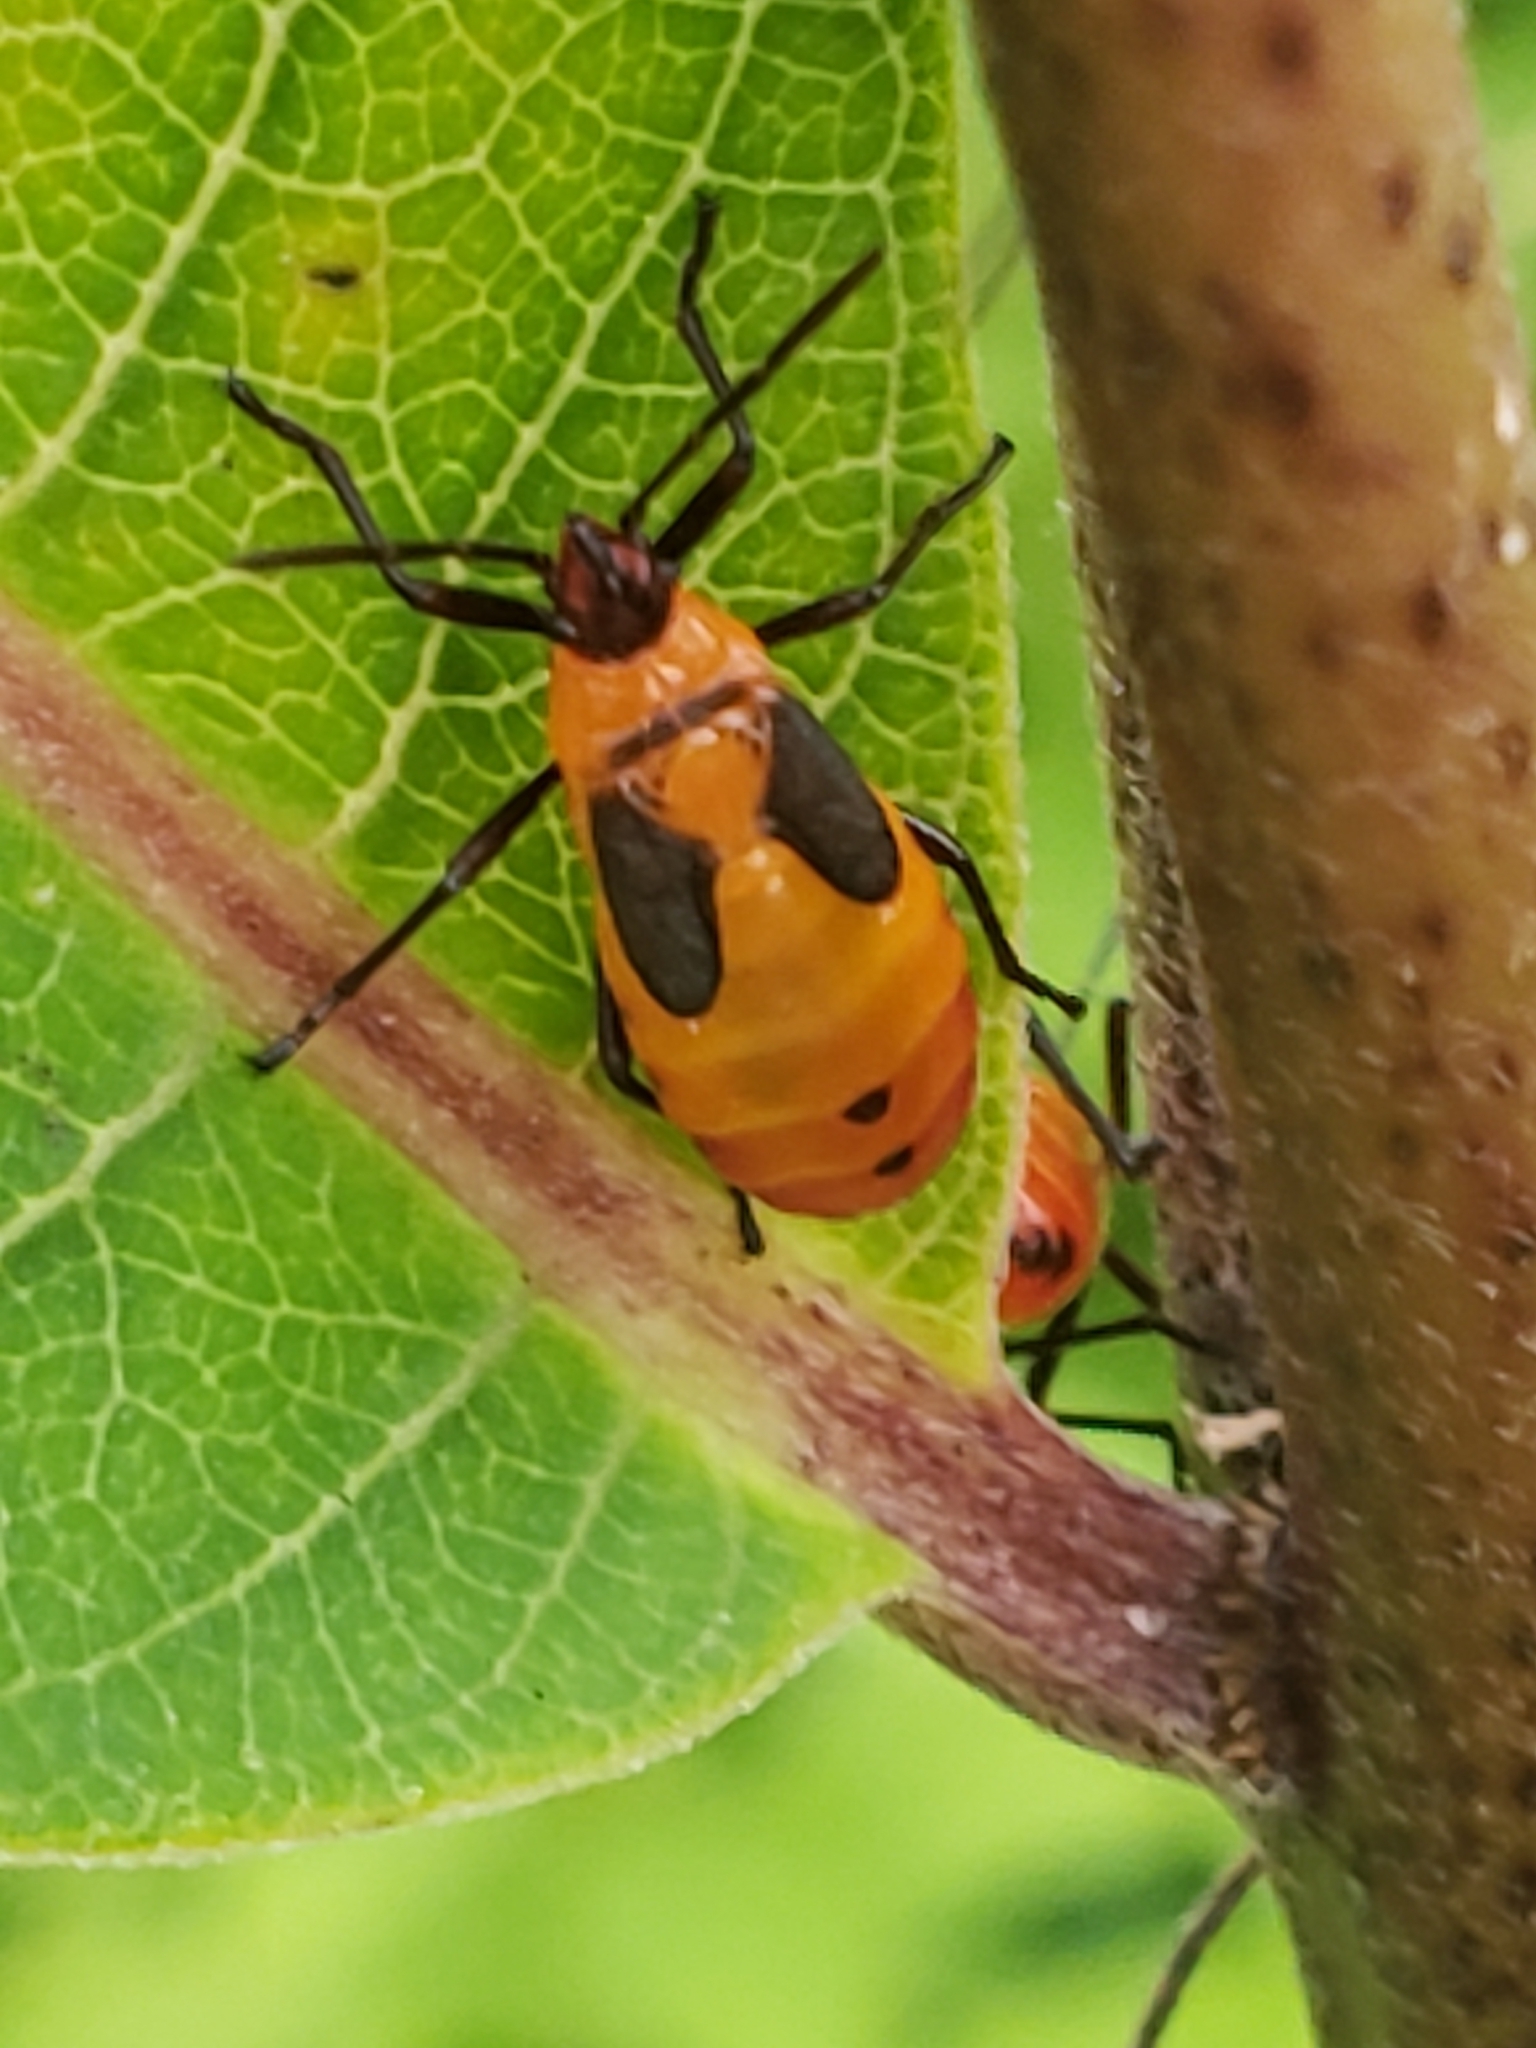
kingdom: Animalia
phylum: Arthropoda
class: Insecta
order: Hemiptera
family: Lygaeidae
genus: Oncopeltus
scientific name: Oncopeltus fasciatus
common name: Large milkweed bug
